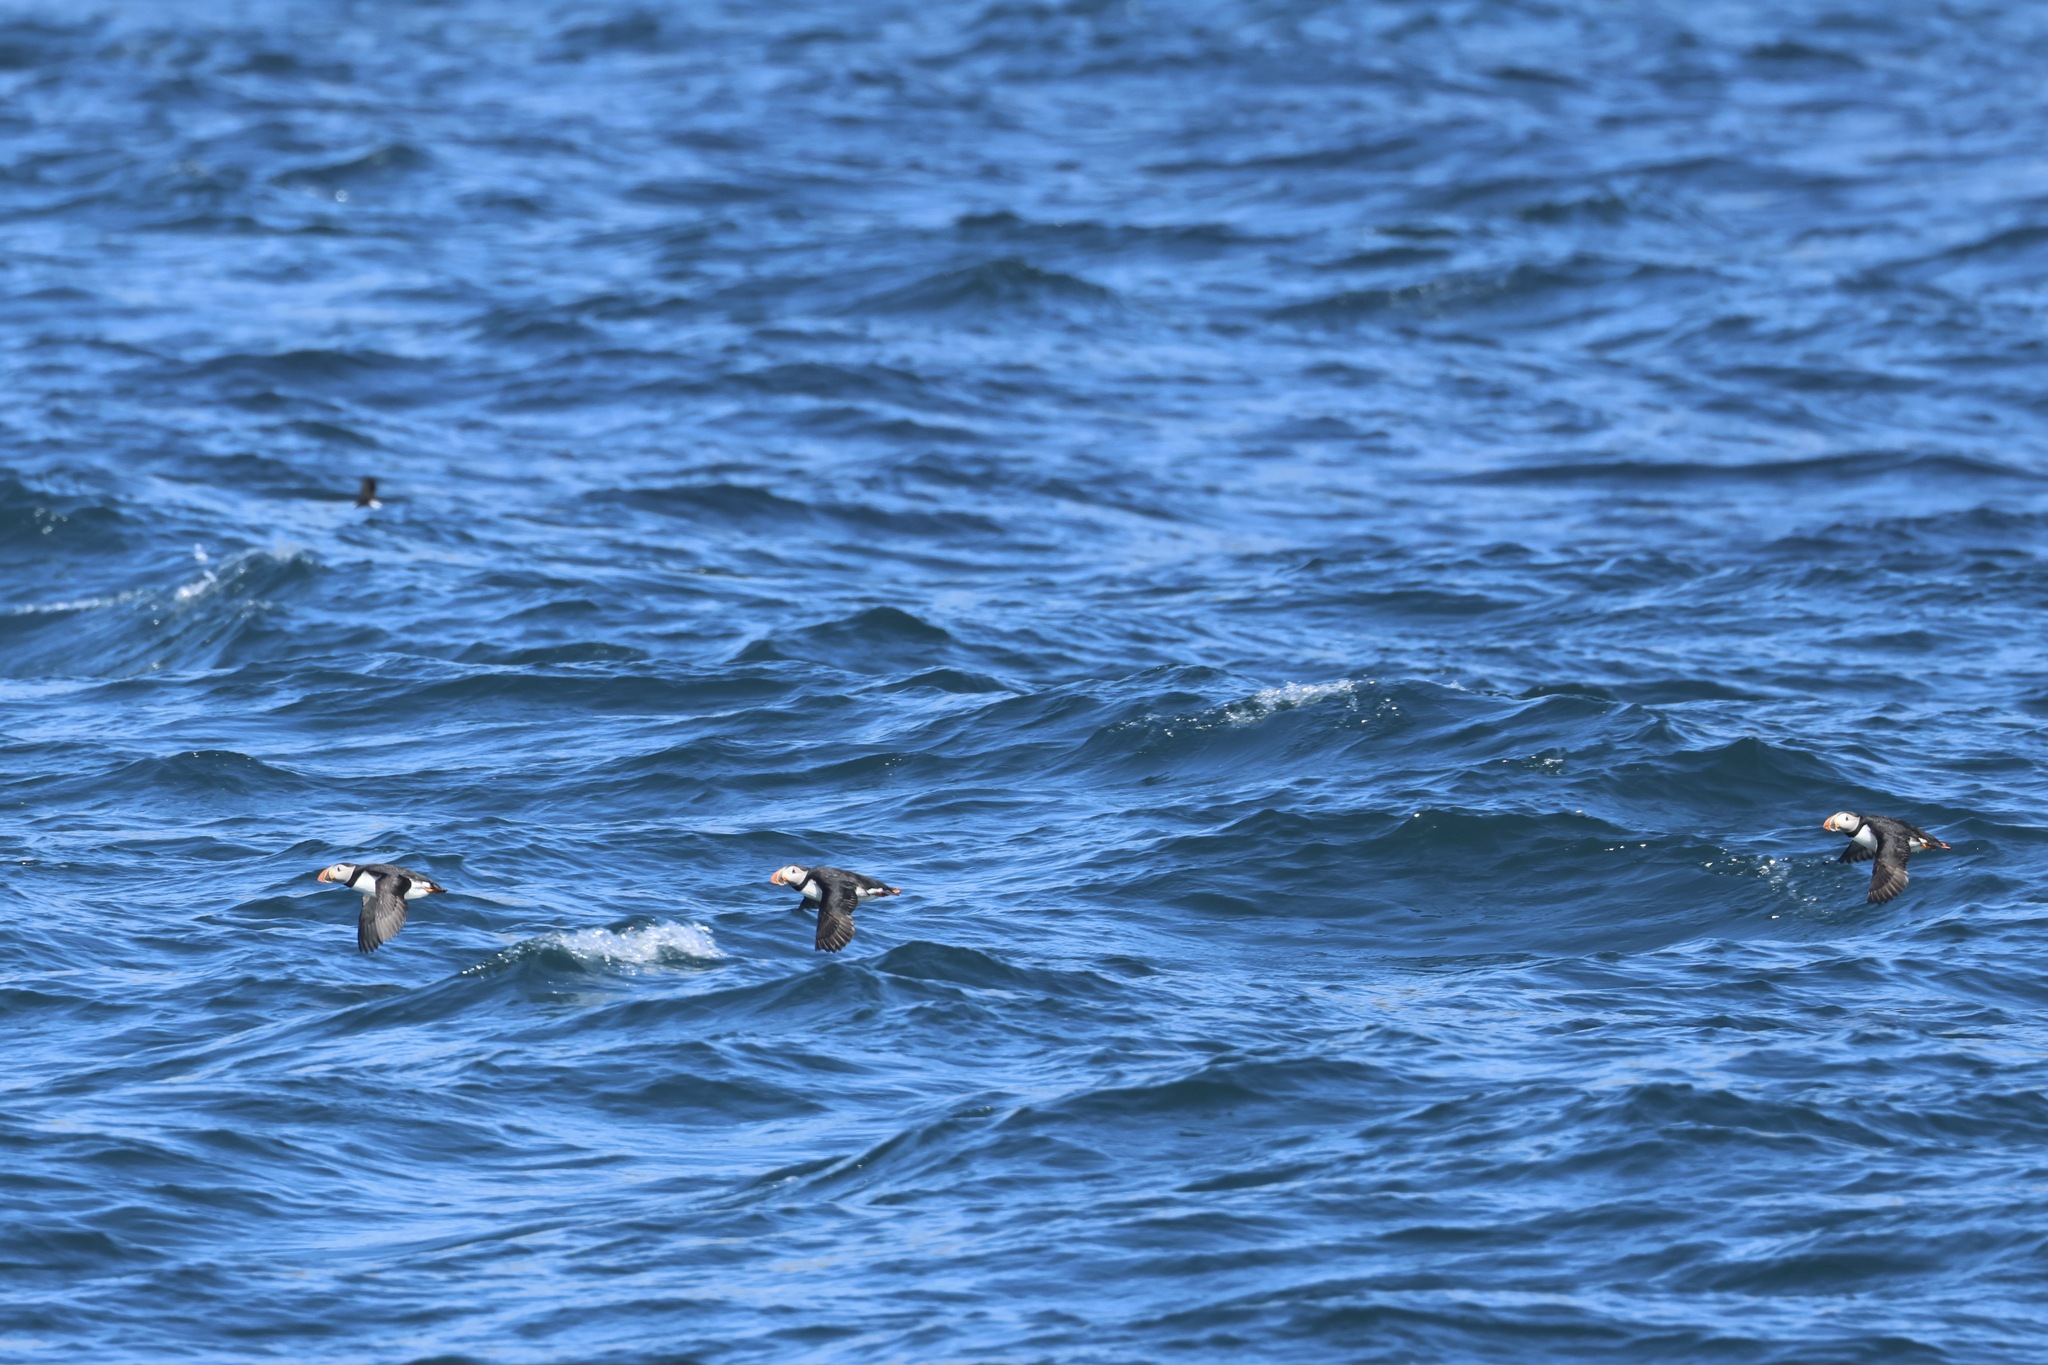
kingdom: Animalia
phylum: Chordata
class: Aves
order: Charadriiformes
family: Alcidae
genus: Fratercula
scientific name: Fratercula arctica
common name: Atlantic puffin
